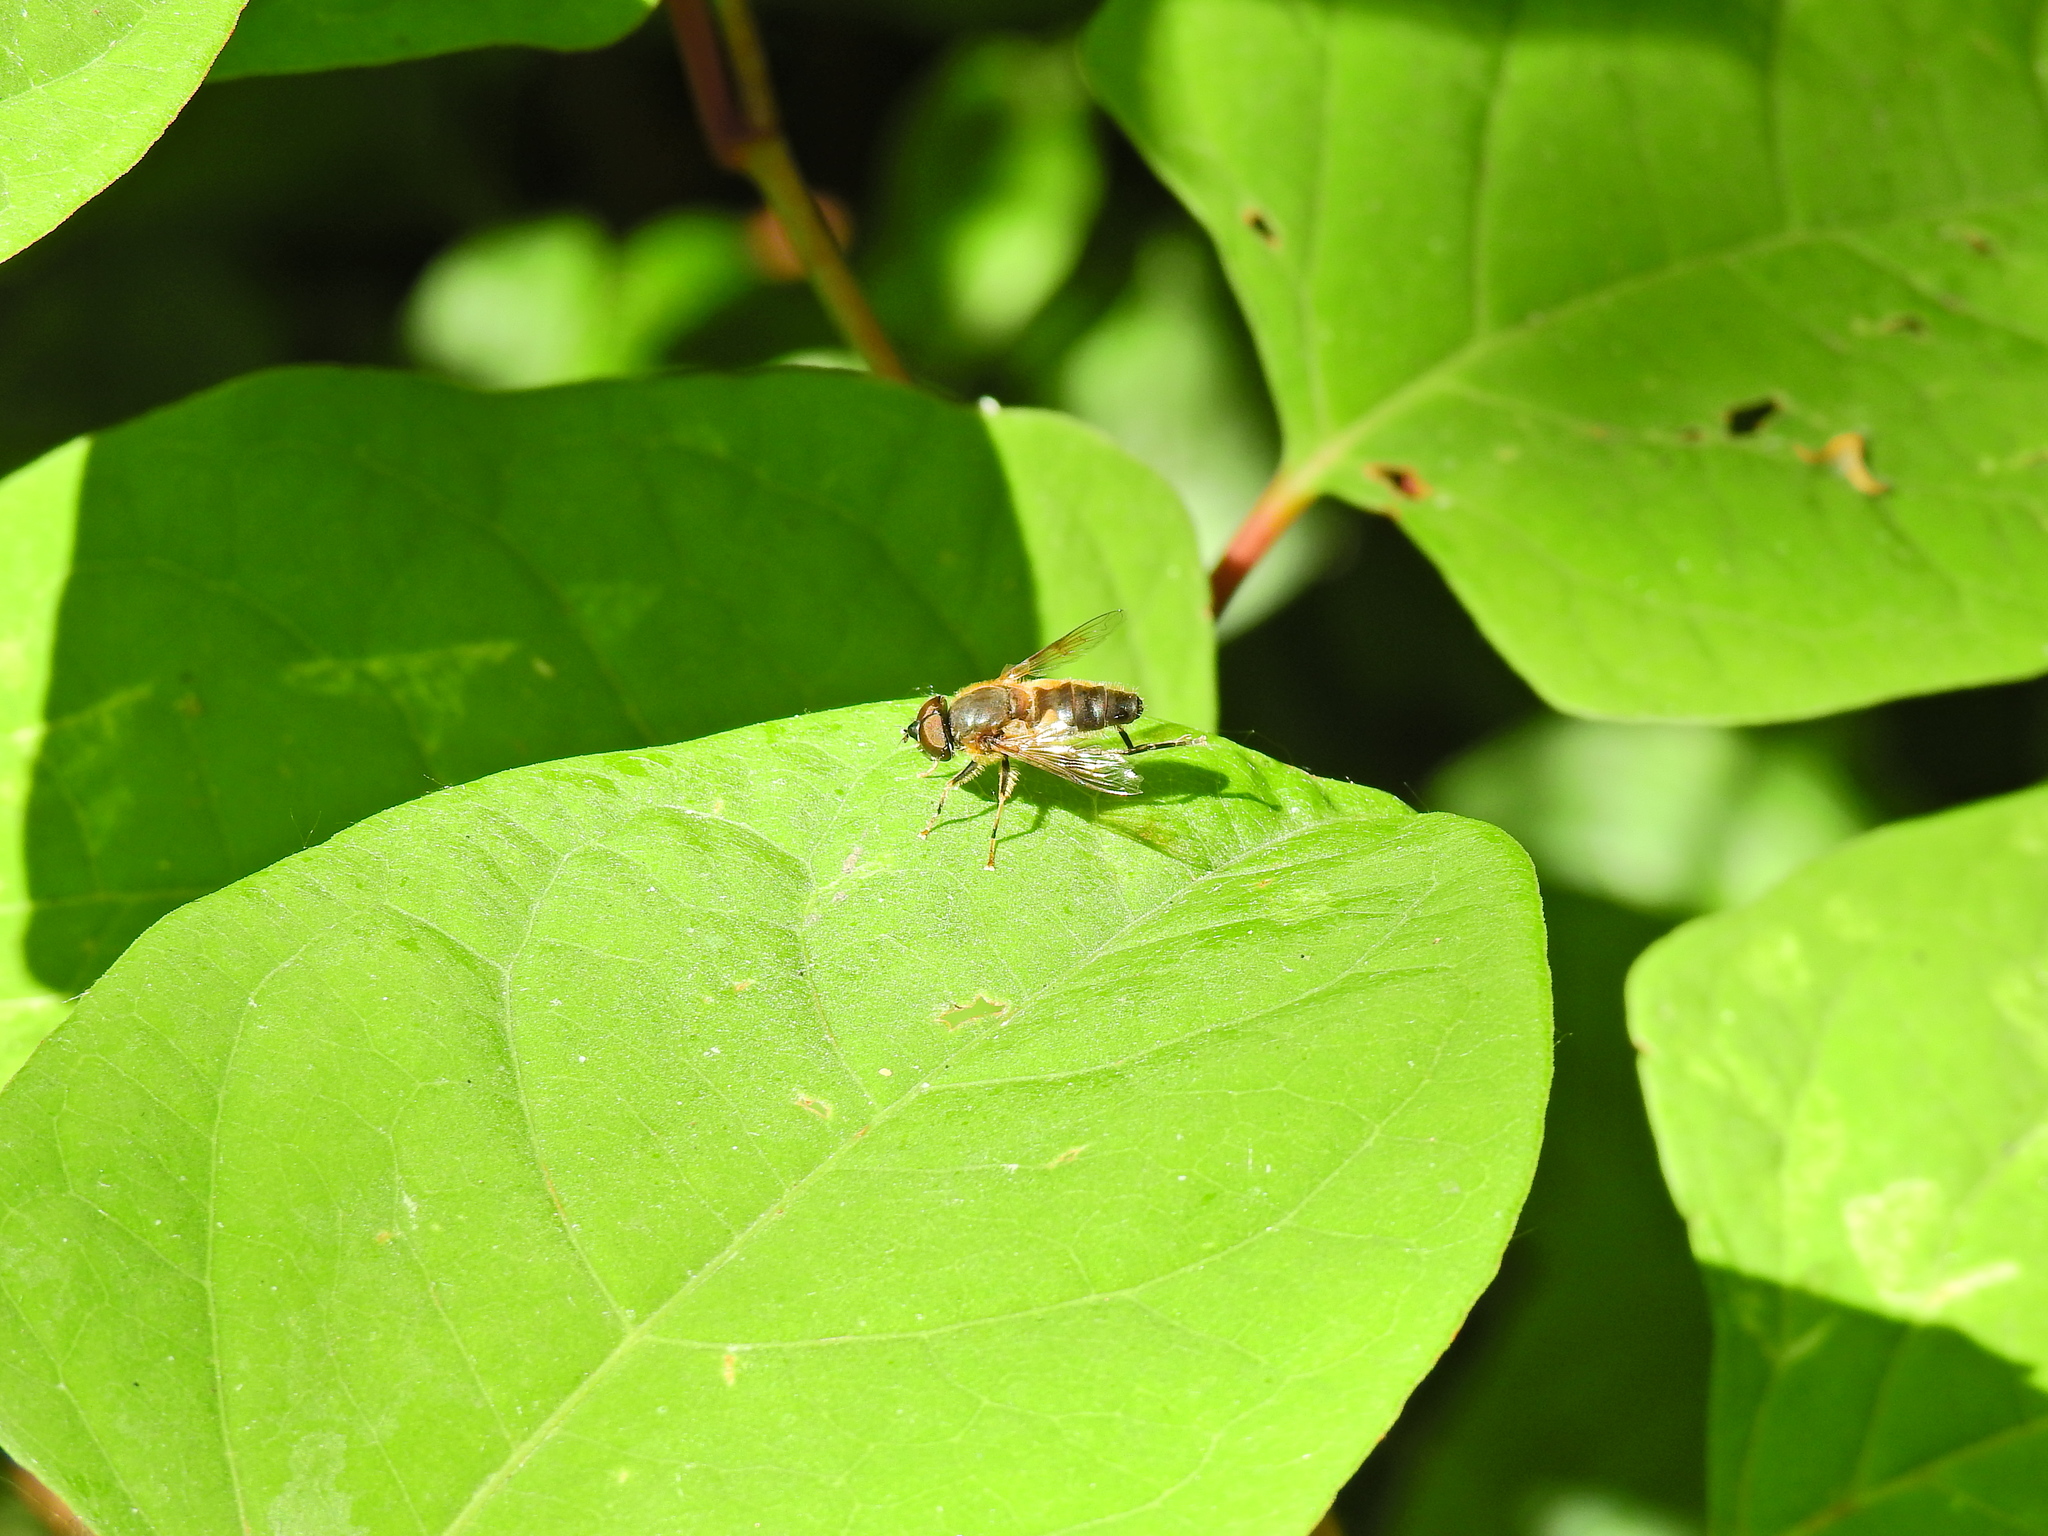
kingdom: Animalia
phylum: Arthropoda
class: Insecta
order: Diptera
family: Syrphidae
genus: Eristalis
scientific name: Eristalis pertinax
